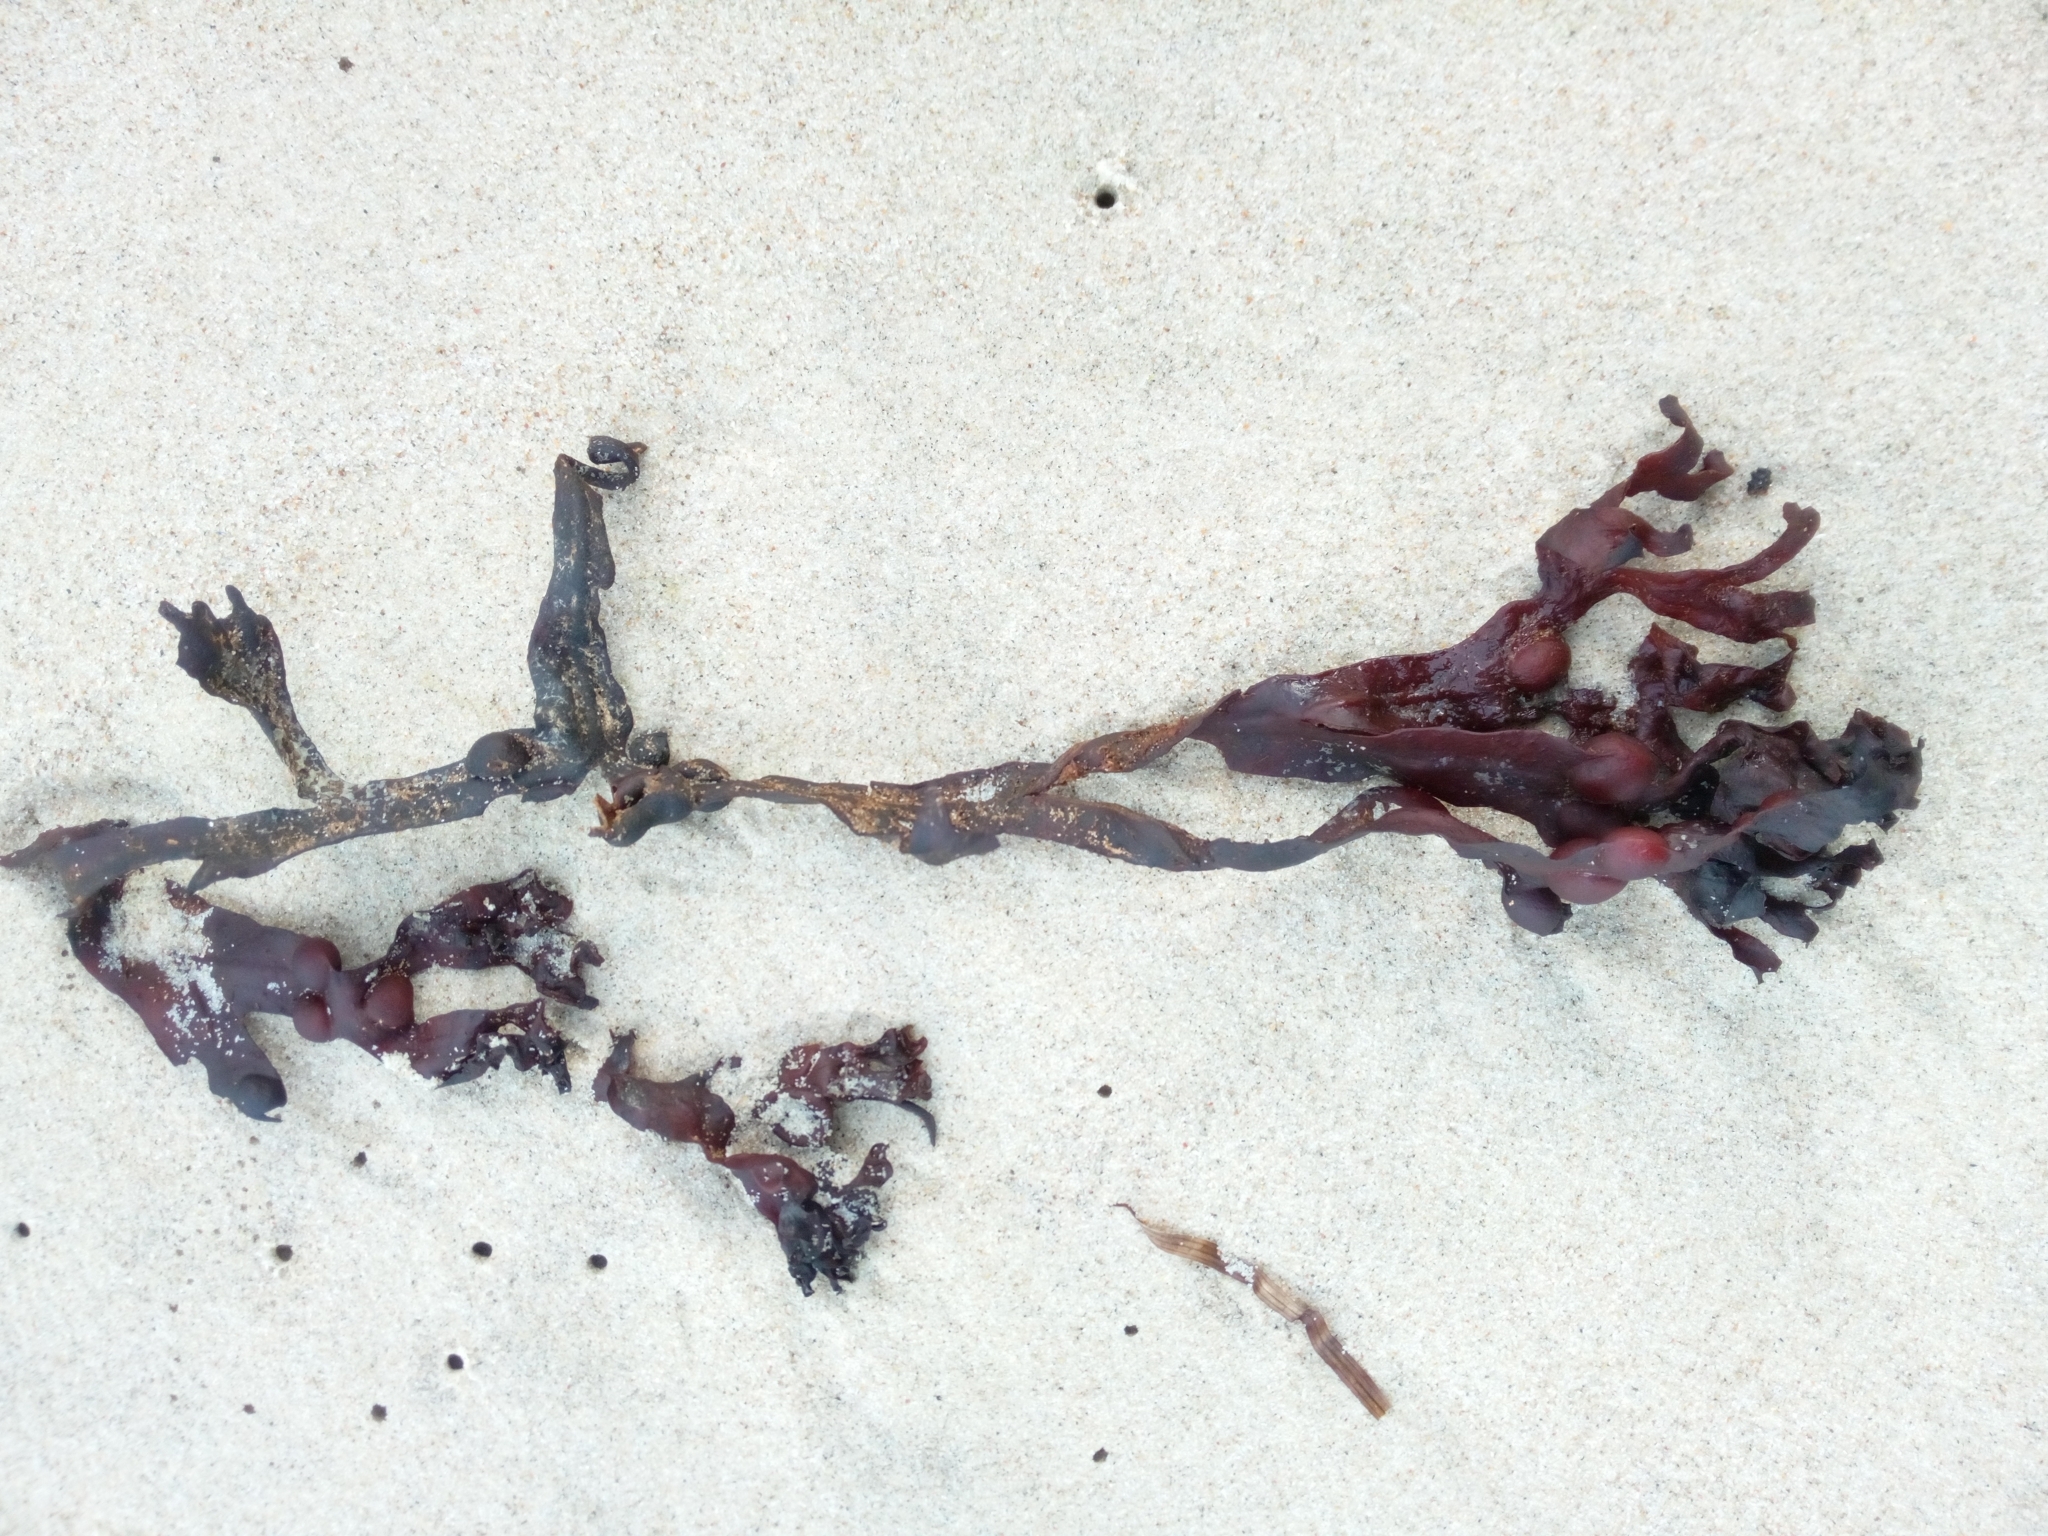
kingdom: Chromista
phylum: Ochrophyta
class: Phaeophyceae
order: Fucales
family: Fucaceae
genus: Fucus
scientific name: Fucus vesiculosus
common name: Bladder wrack
